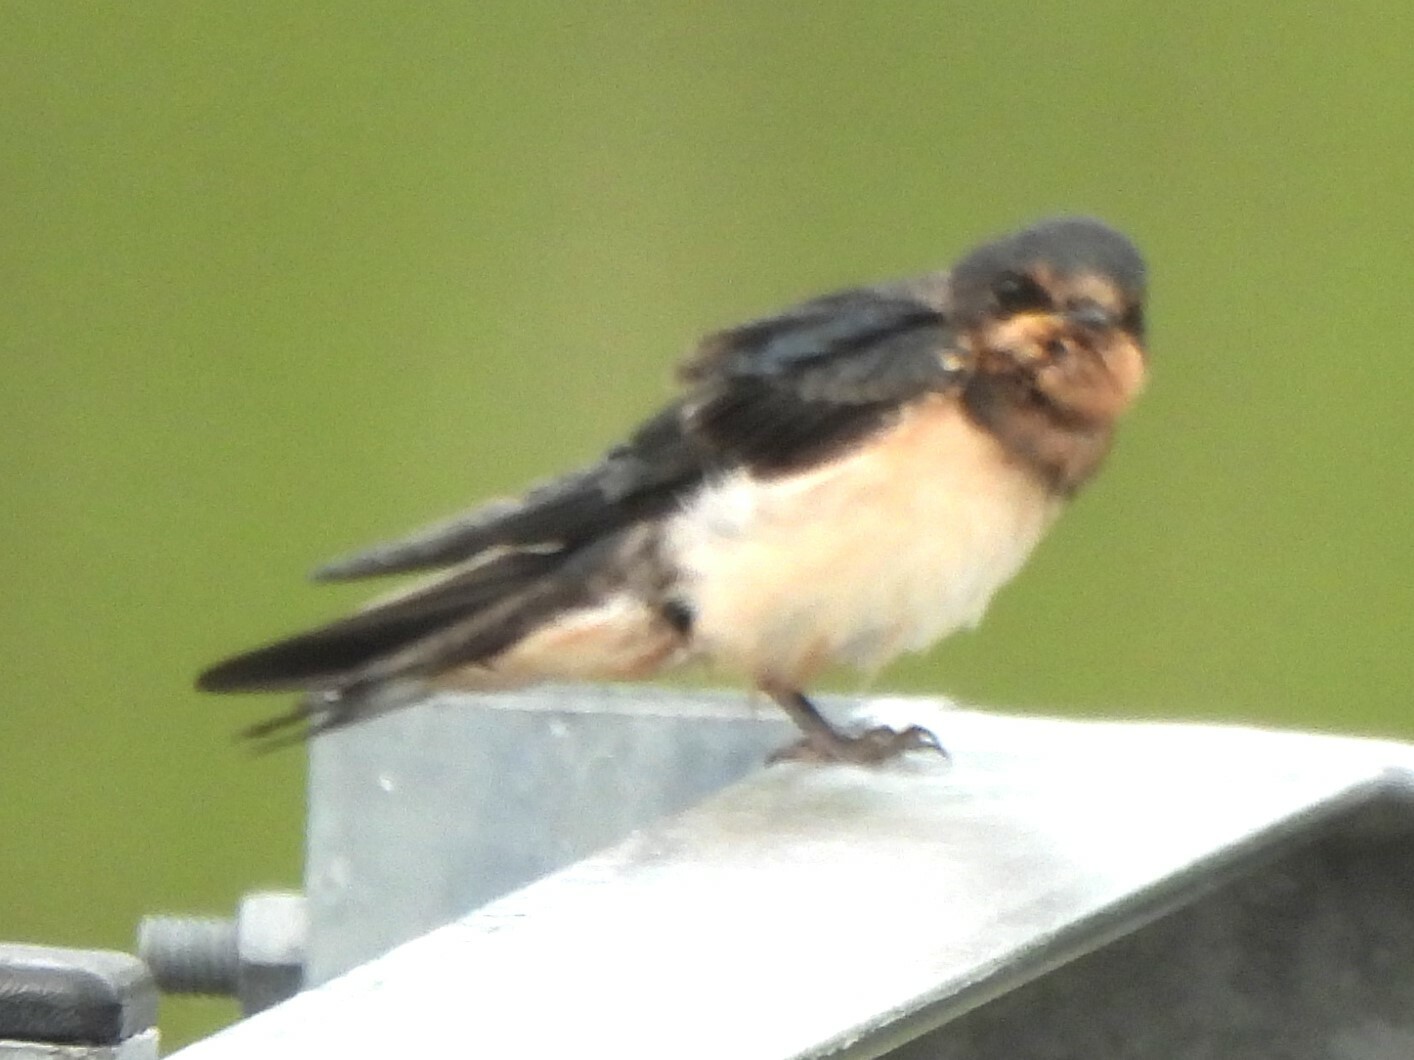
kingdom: Animalia
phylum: Chordata
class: Aves
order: Passeriformes
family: Hirundinidae
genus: Hirundo
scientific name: Hirundo rustica
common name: Barn swallow
